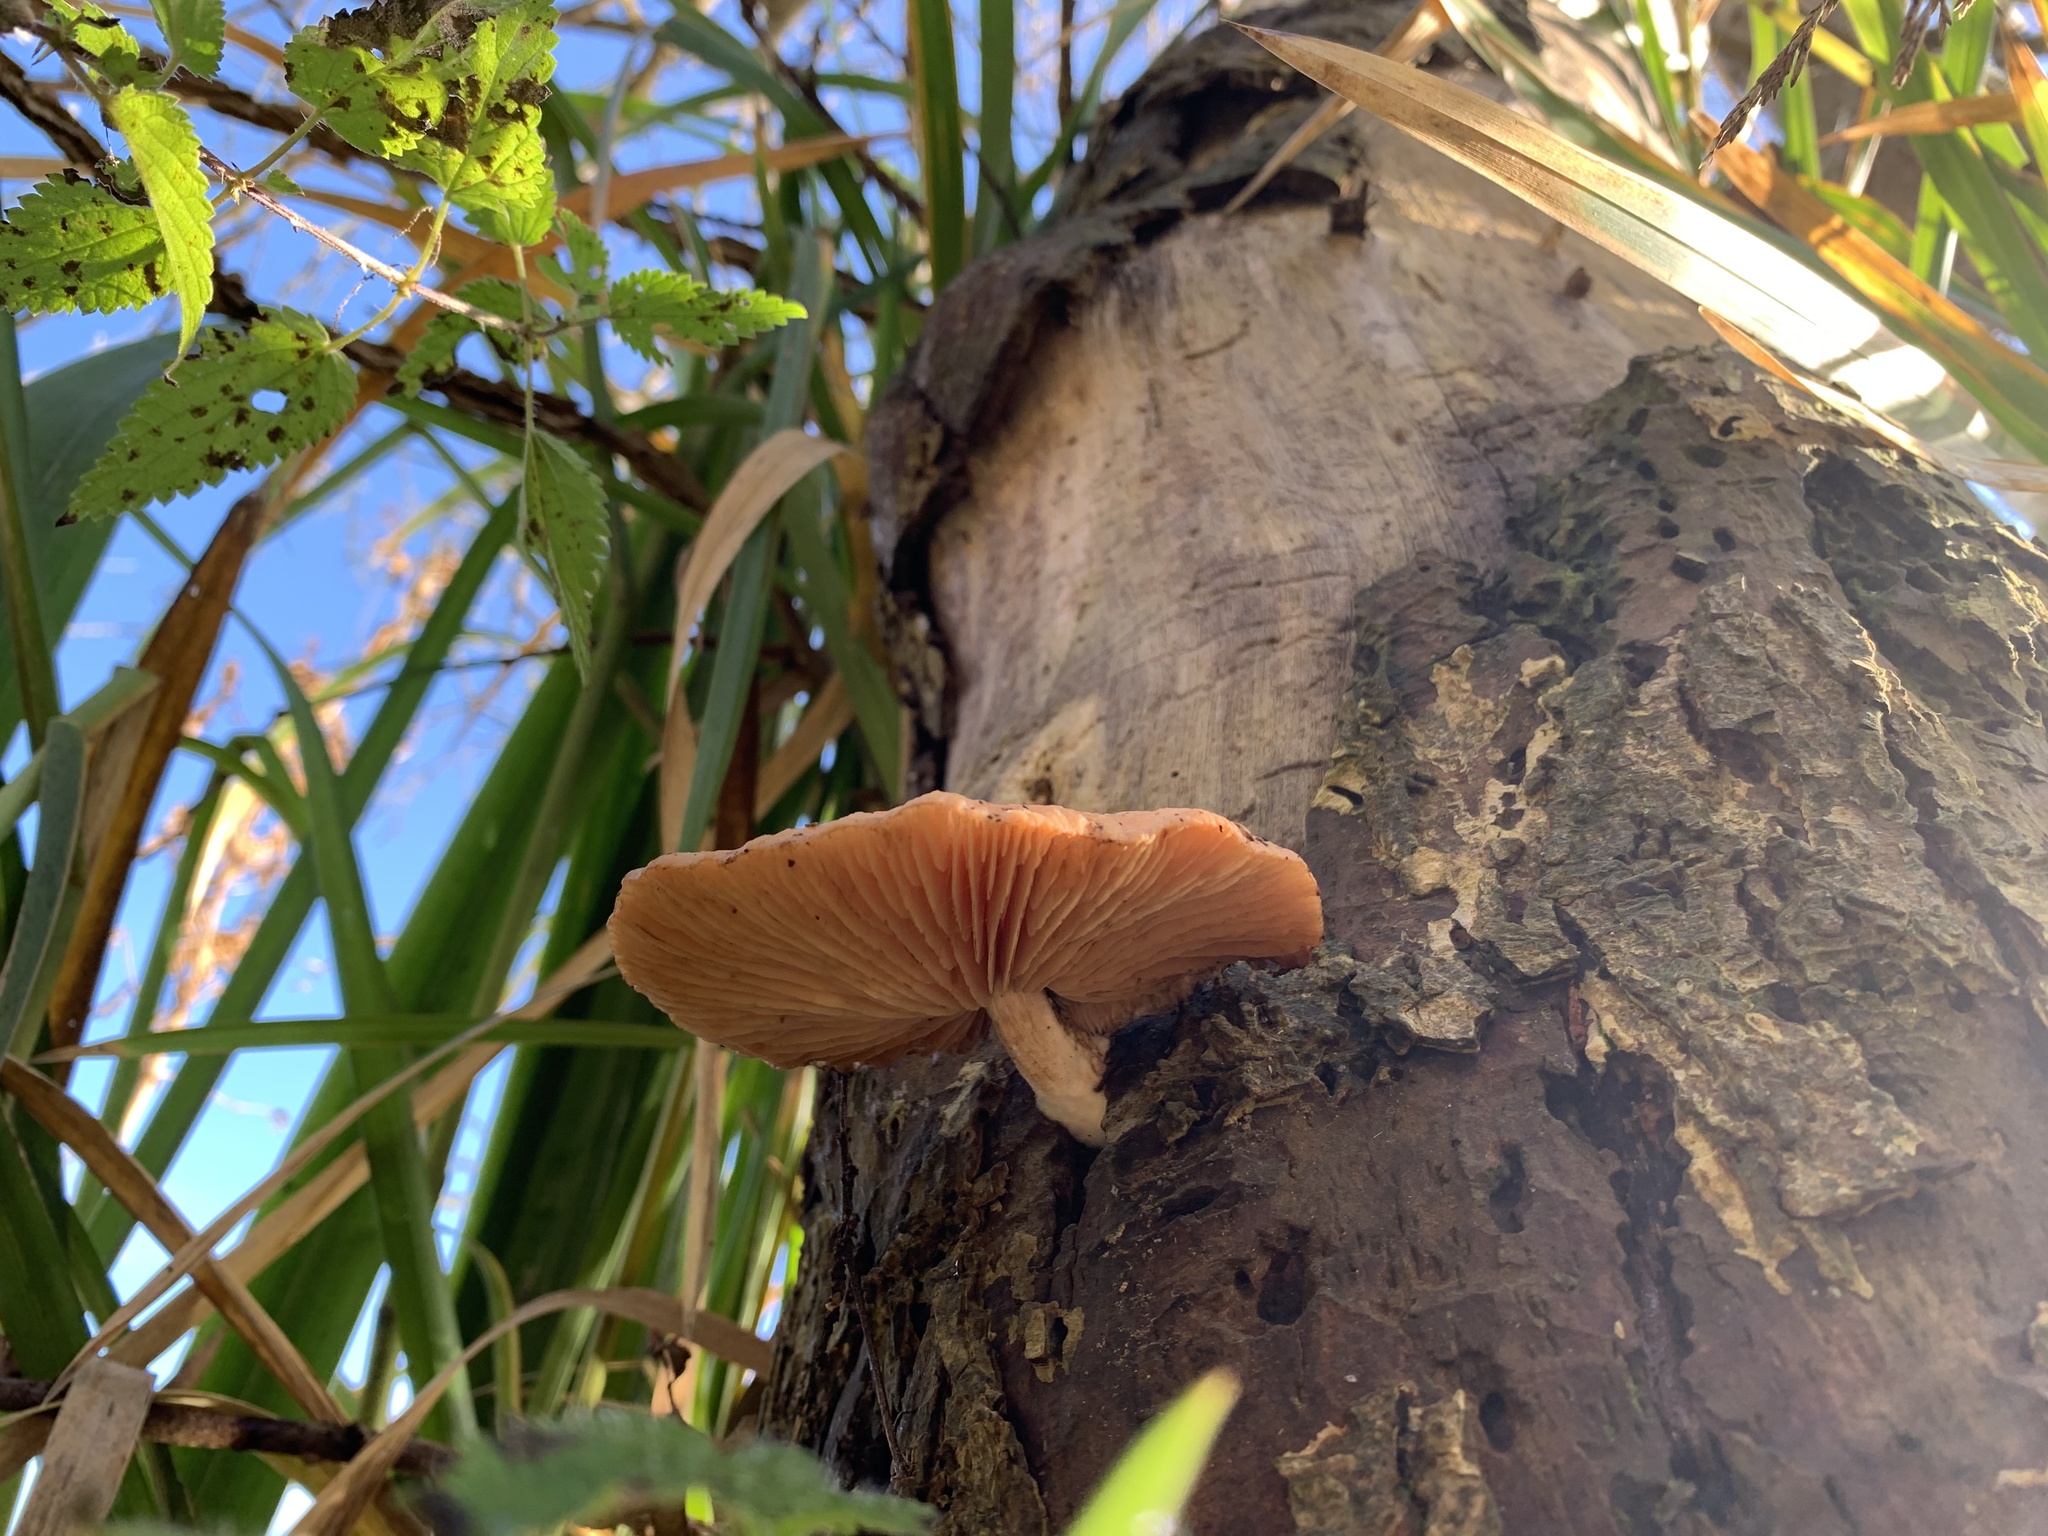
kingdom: Fungi
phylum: Basidiomycota
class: Agaricomycetes
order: Agaricales
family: Physalacriaceae
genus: Rhodotus
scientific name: Rhodotus palmatus
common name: Wrinkled peach
